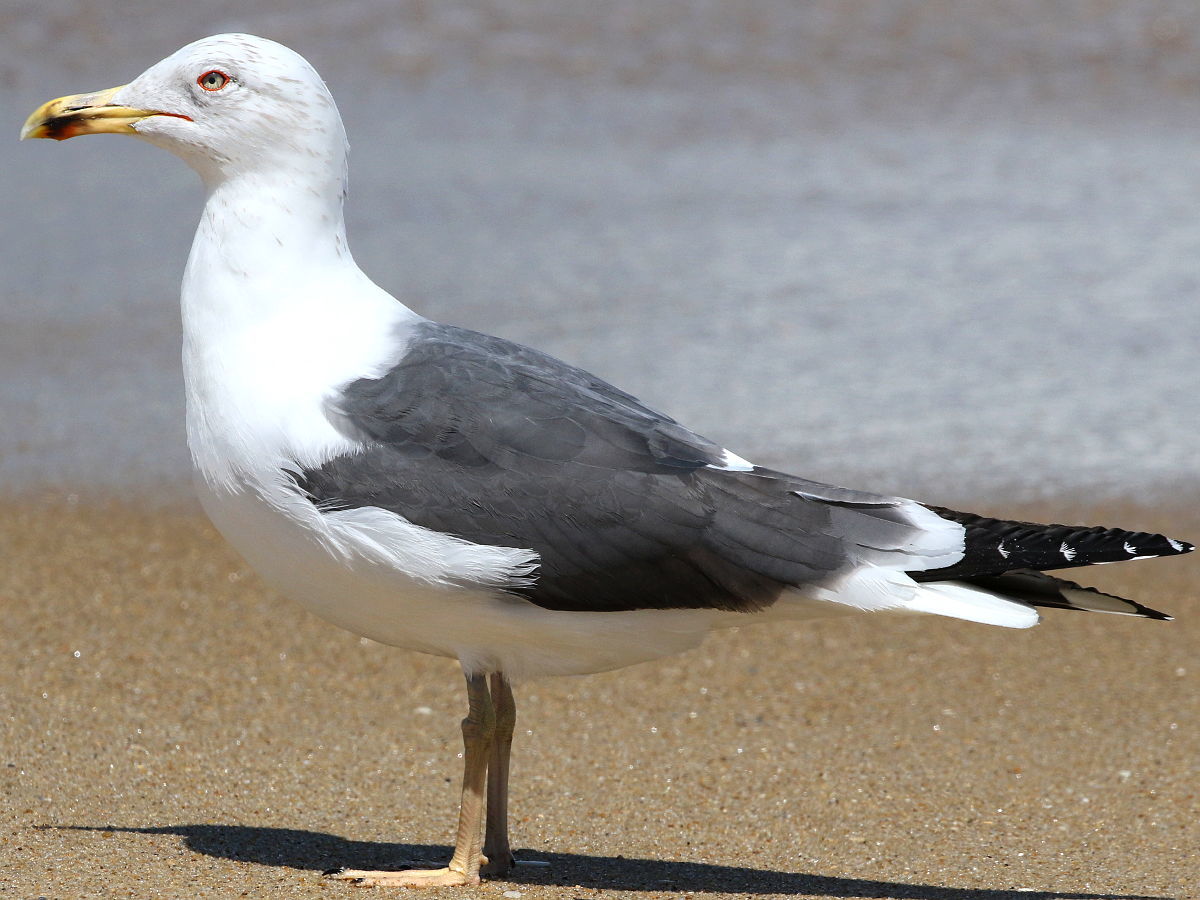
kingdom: Animalia
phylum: Chordata
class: Aves
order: Charadriiformes
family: Laridae
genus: Larus
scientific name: Larus fuscus
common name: Lesser black-backed gull
